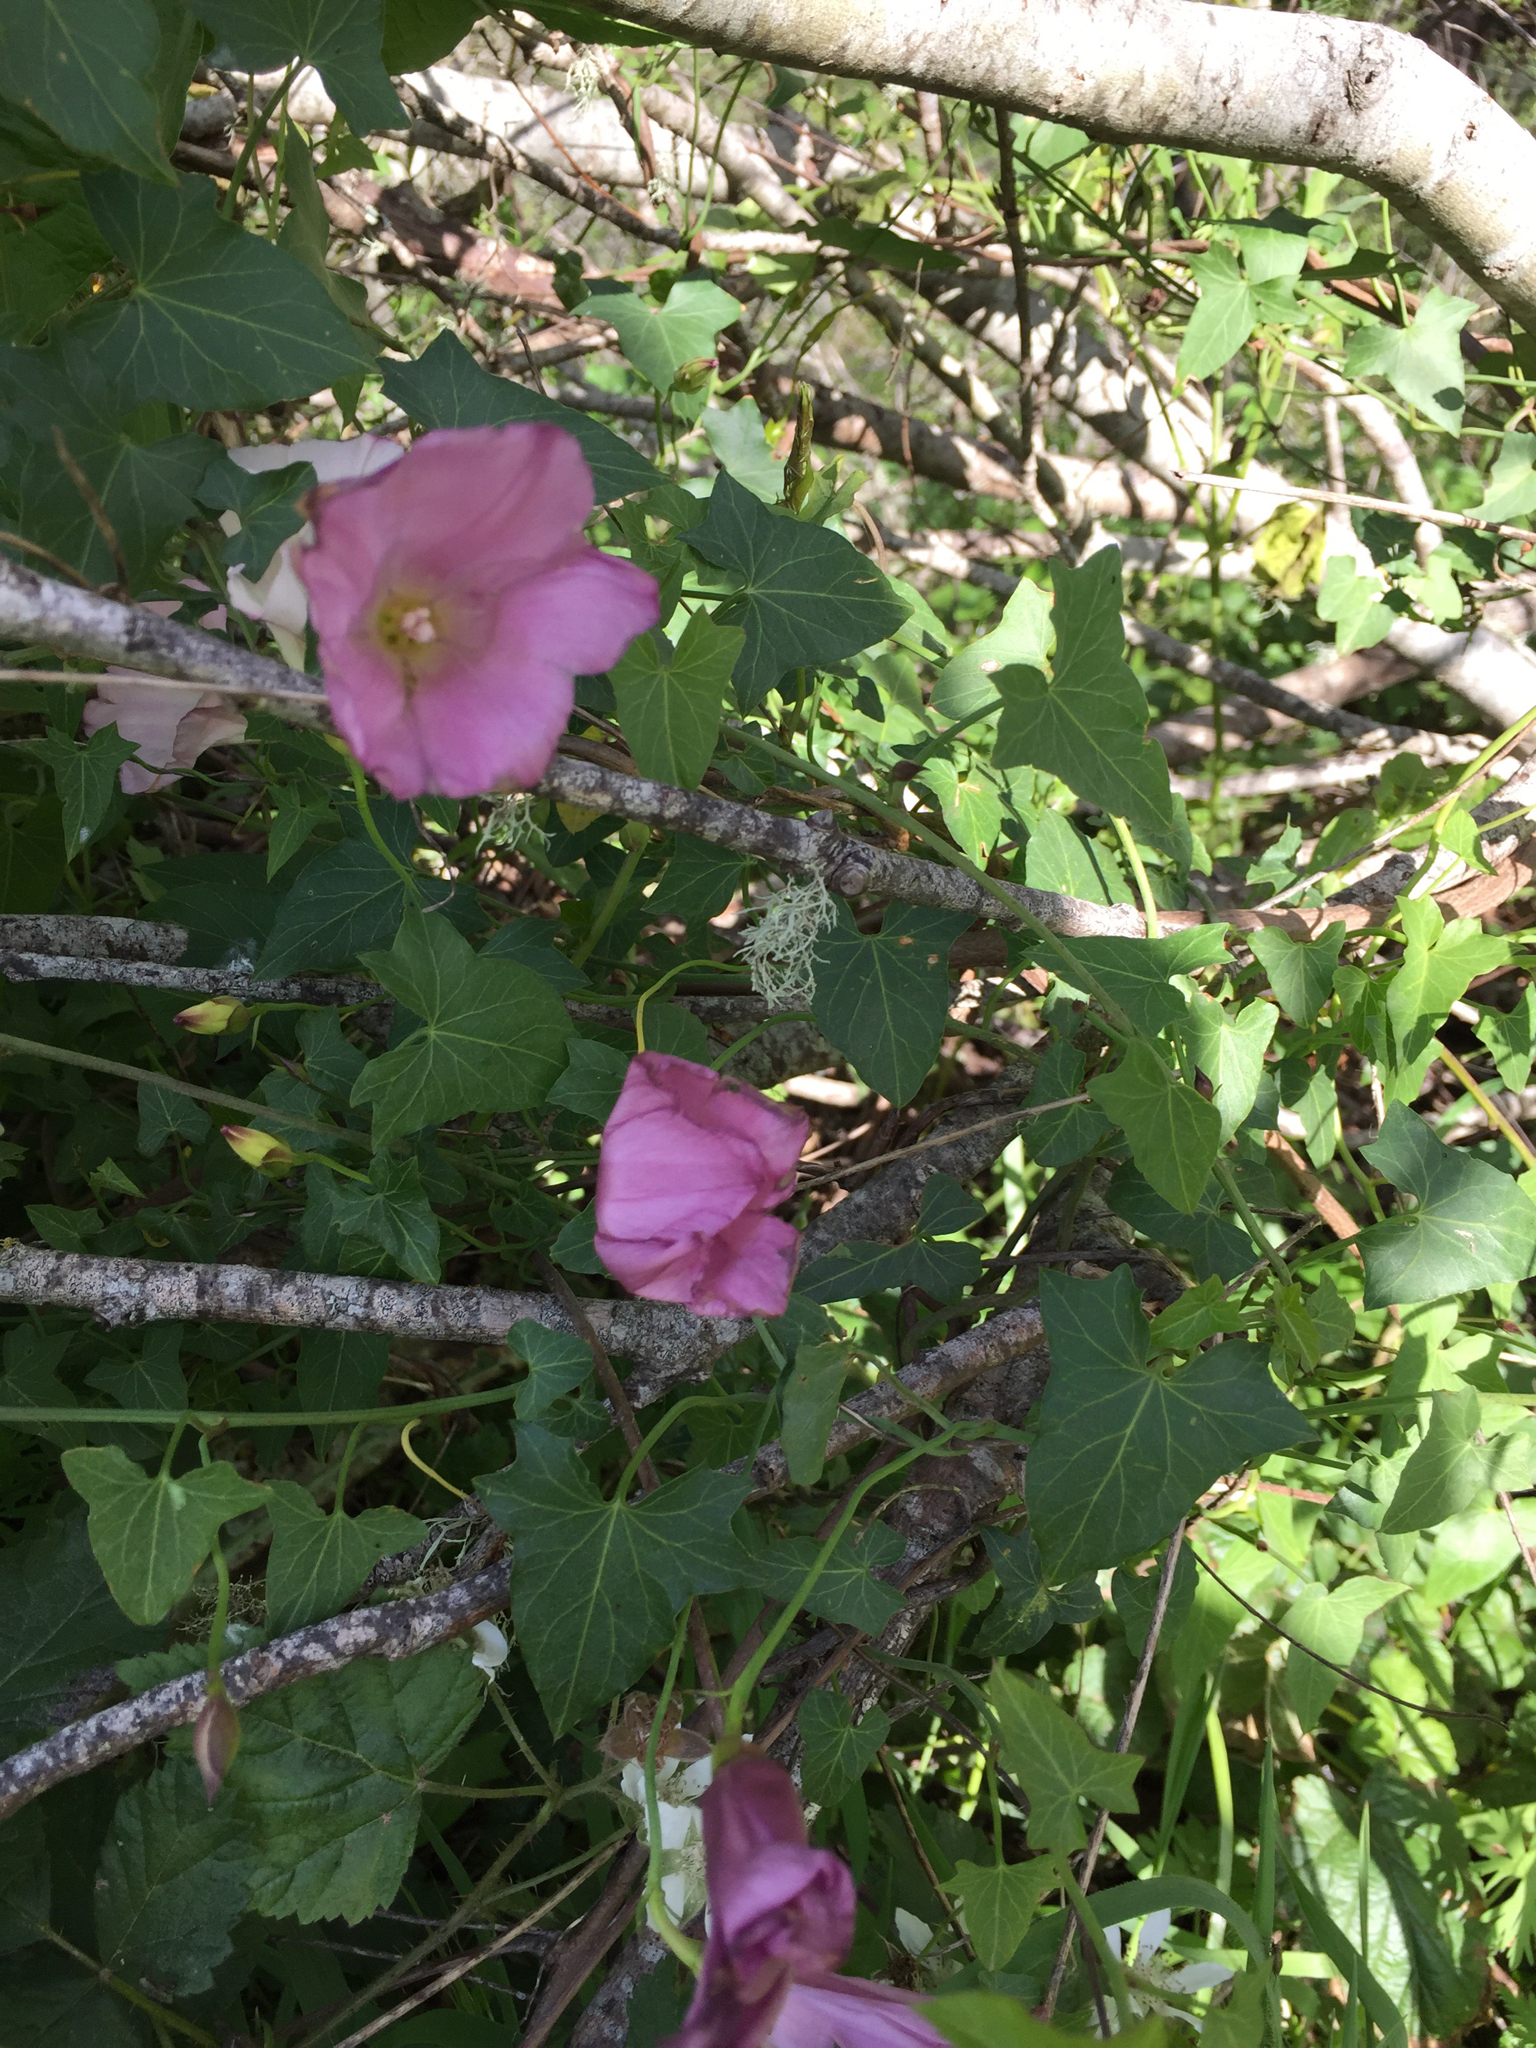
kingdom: Plantae
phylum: Tracheophyta
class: Magnoliopsida
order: Solanales
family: Convolvulaceae
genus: Calystegia
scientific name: Calystegia purpurata
